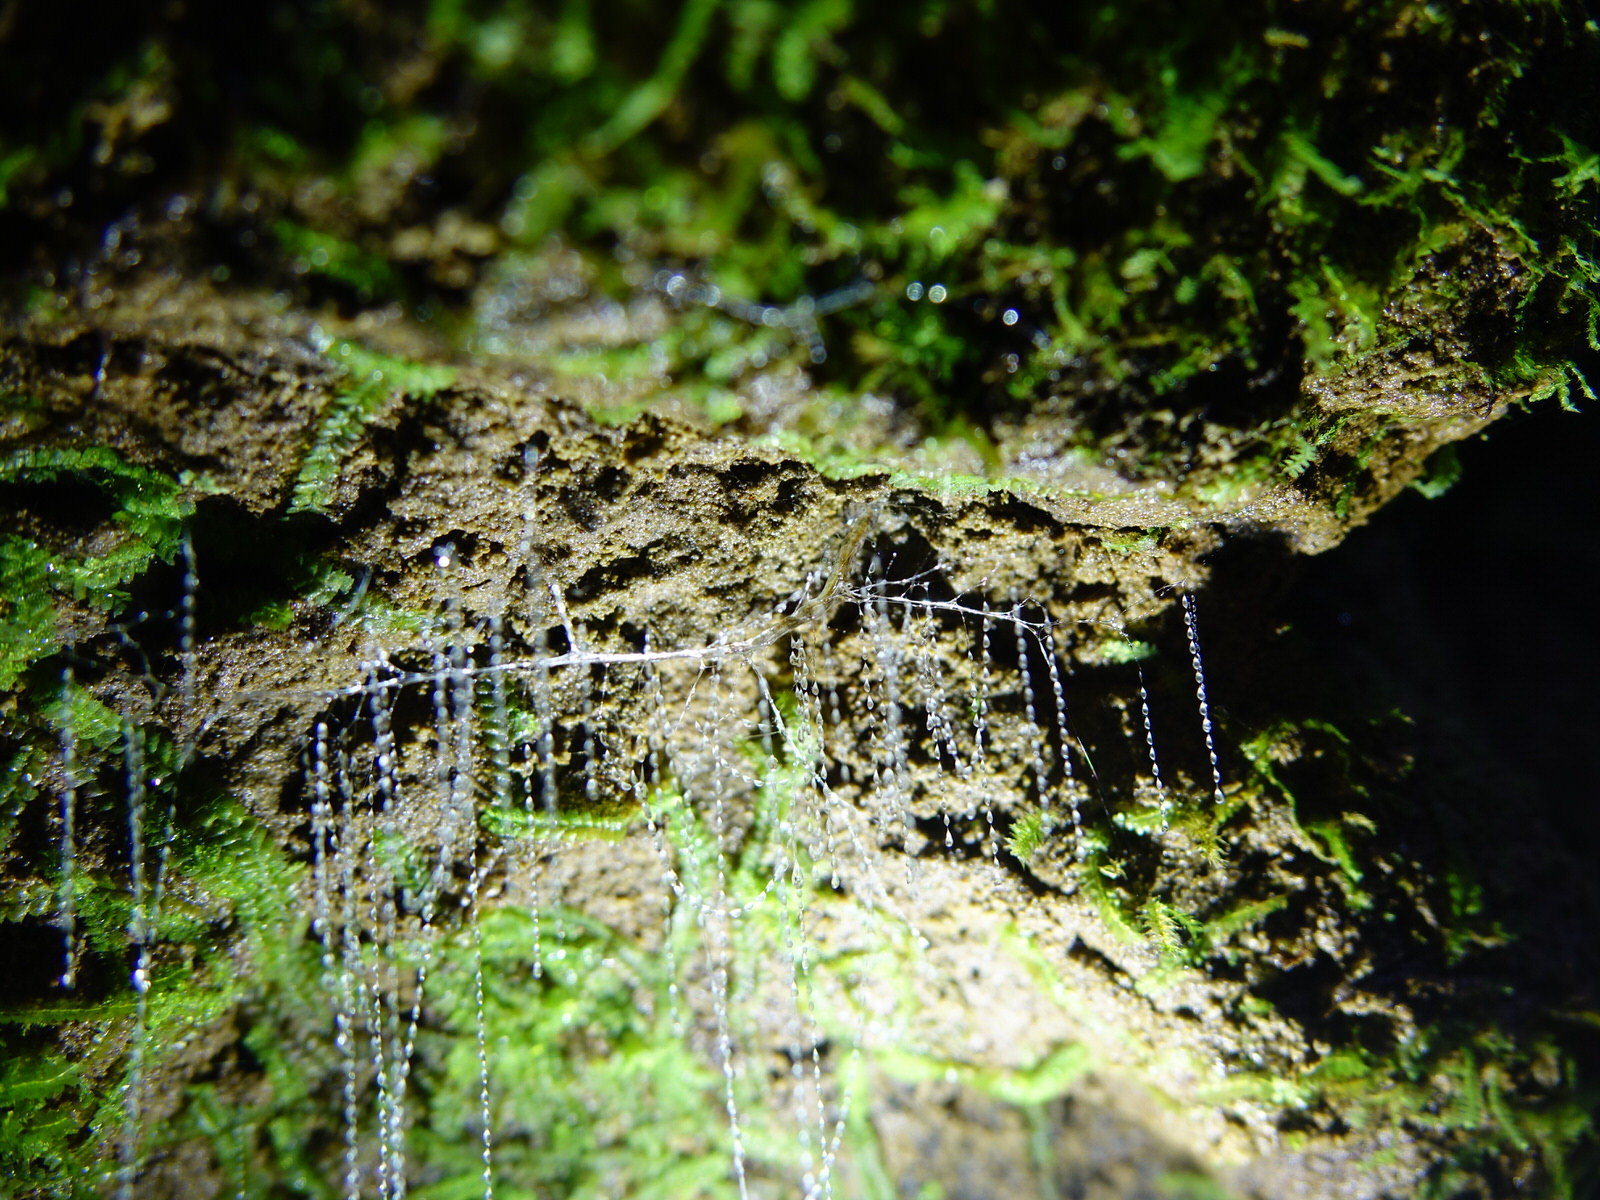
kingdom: Animalia
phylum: Arthropoda
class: Insecta
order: Diptera
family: Keroplatidae
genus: Arachnocampa
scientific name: Arachnocampa luminosa
